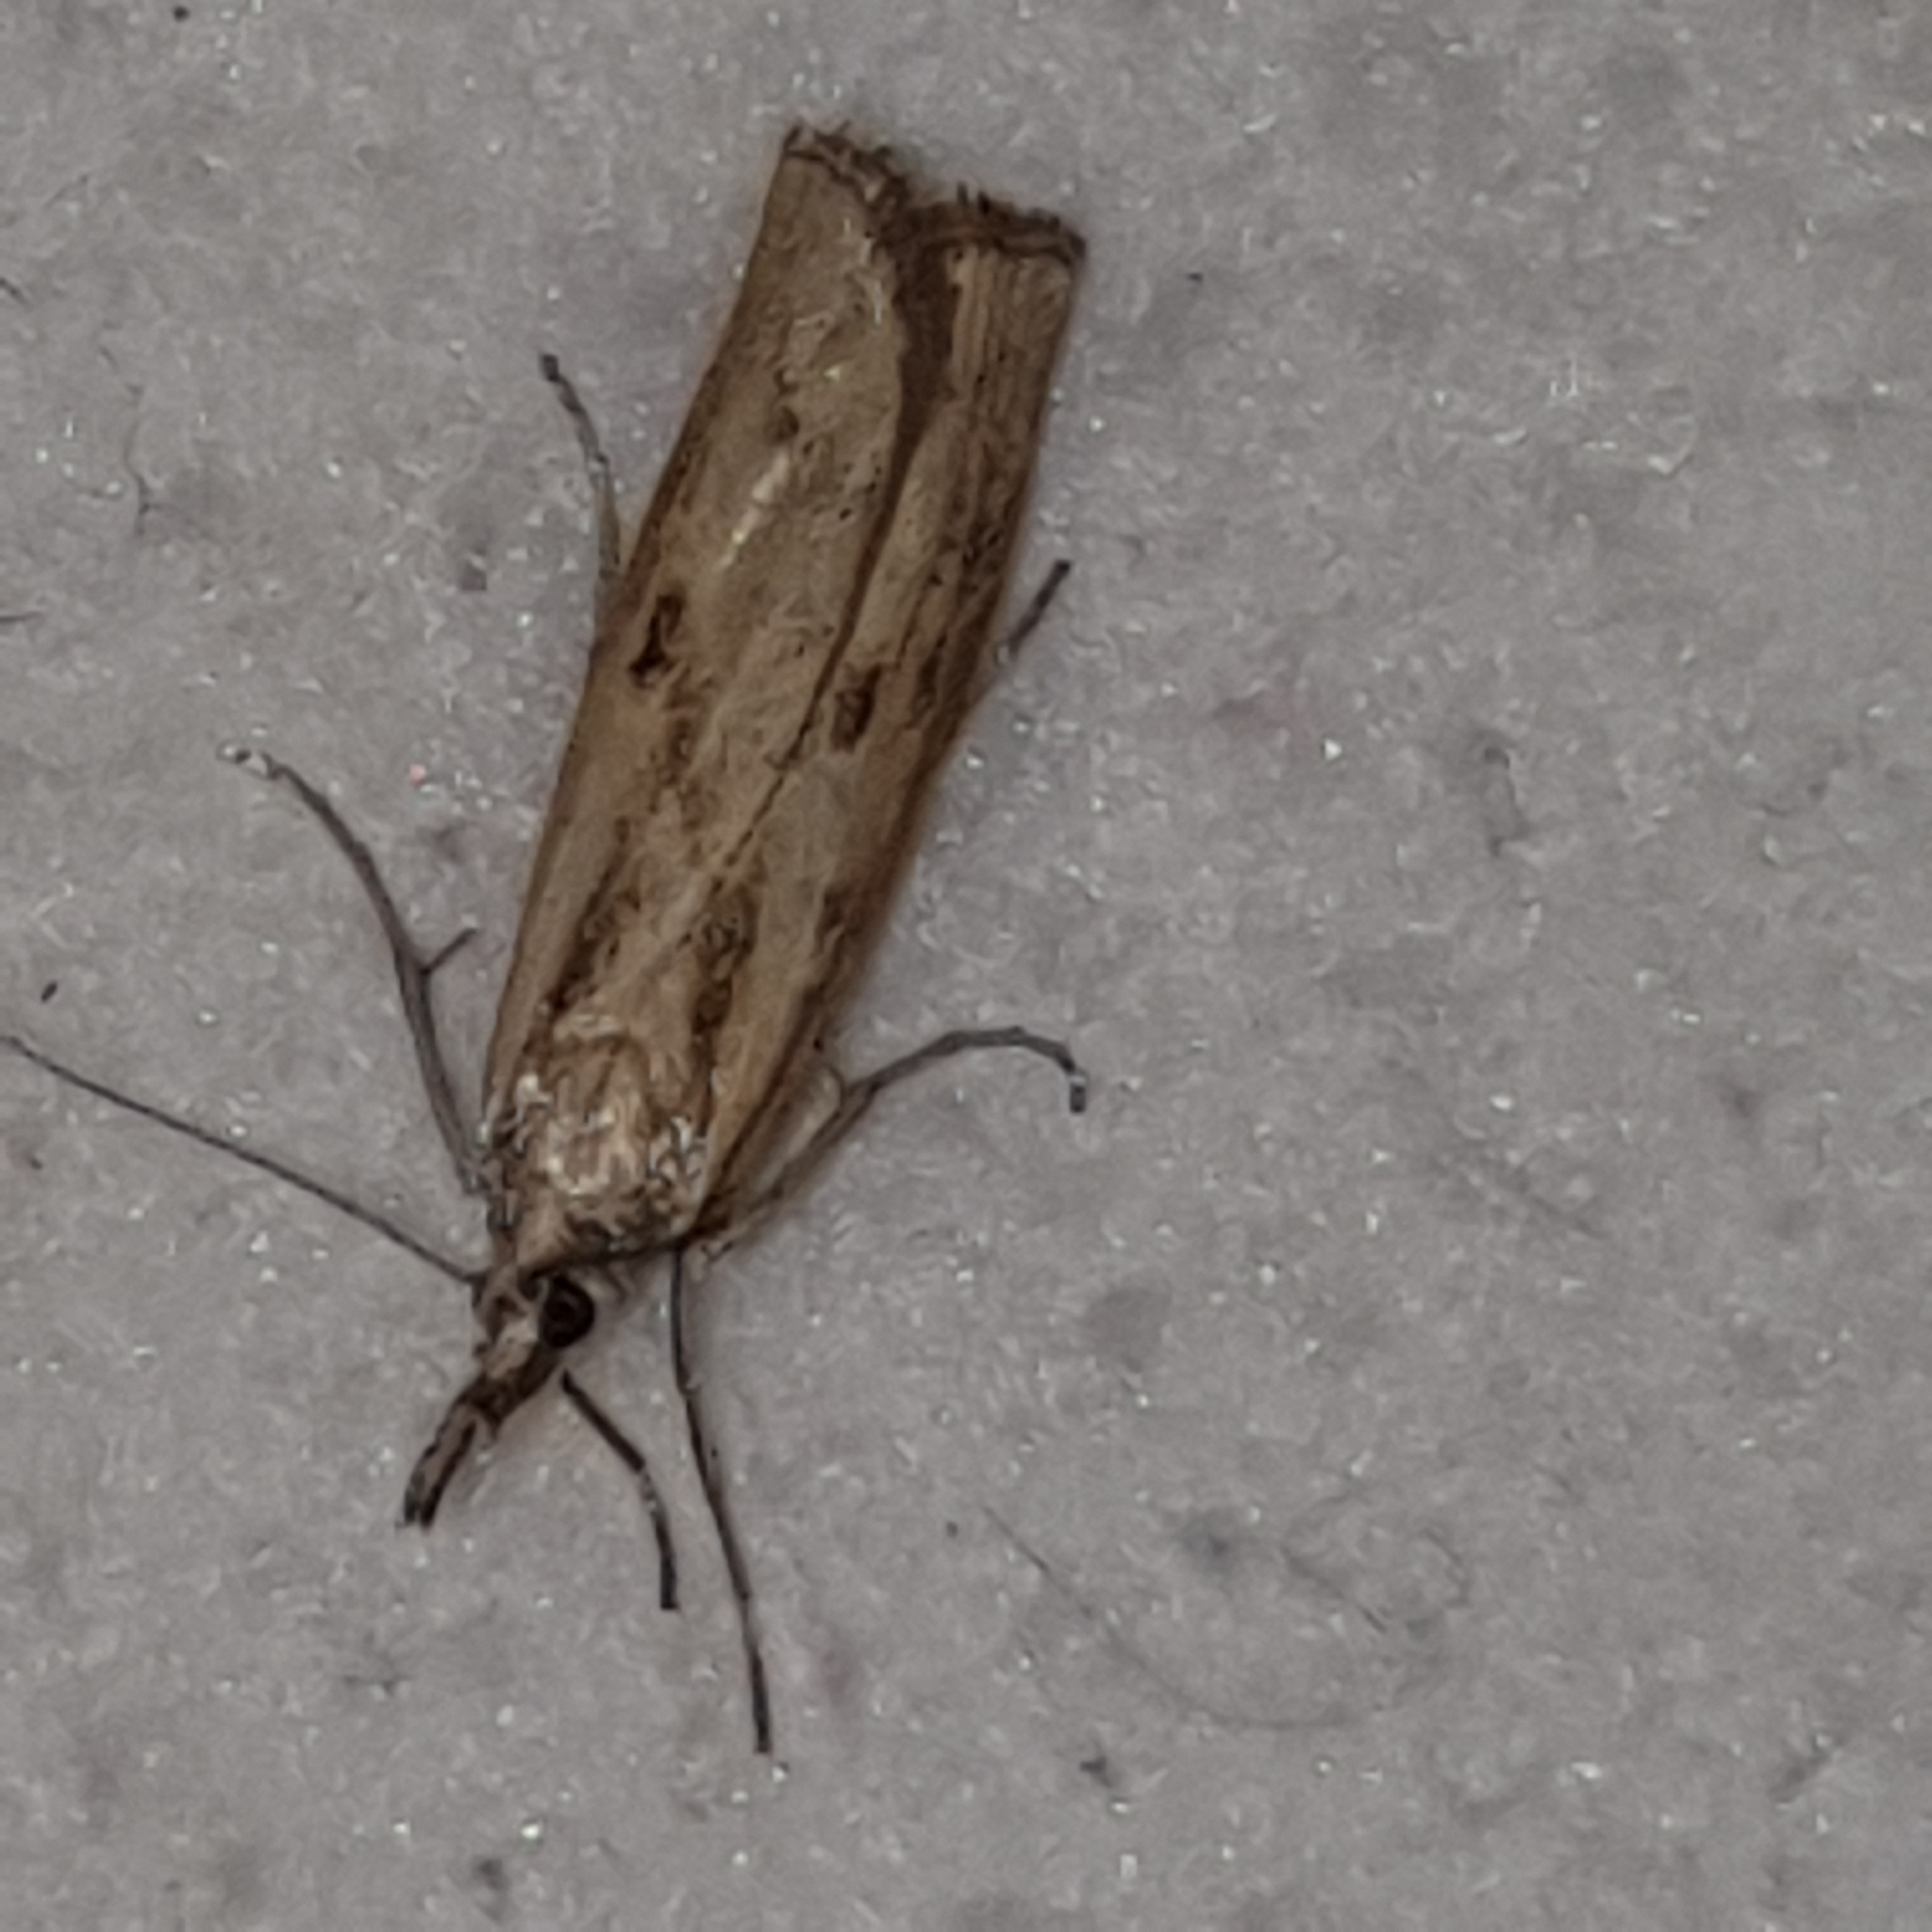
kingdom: Animalia
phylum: Arthropoda
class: Insecta
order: Lepidoptera
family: Crambidae
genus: Agriphila
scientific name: Agriphila inquinatella
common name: Barred grass-veneer
